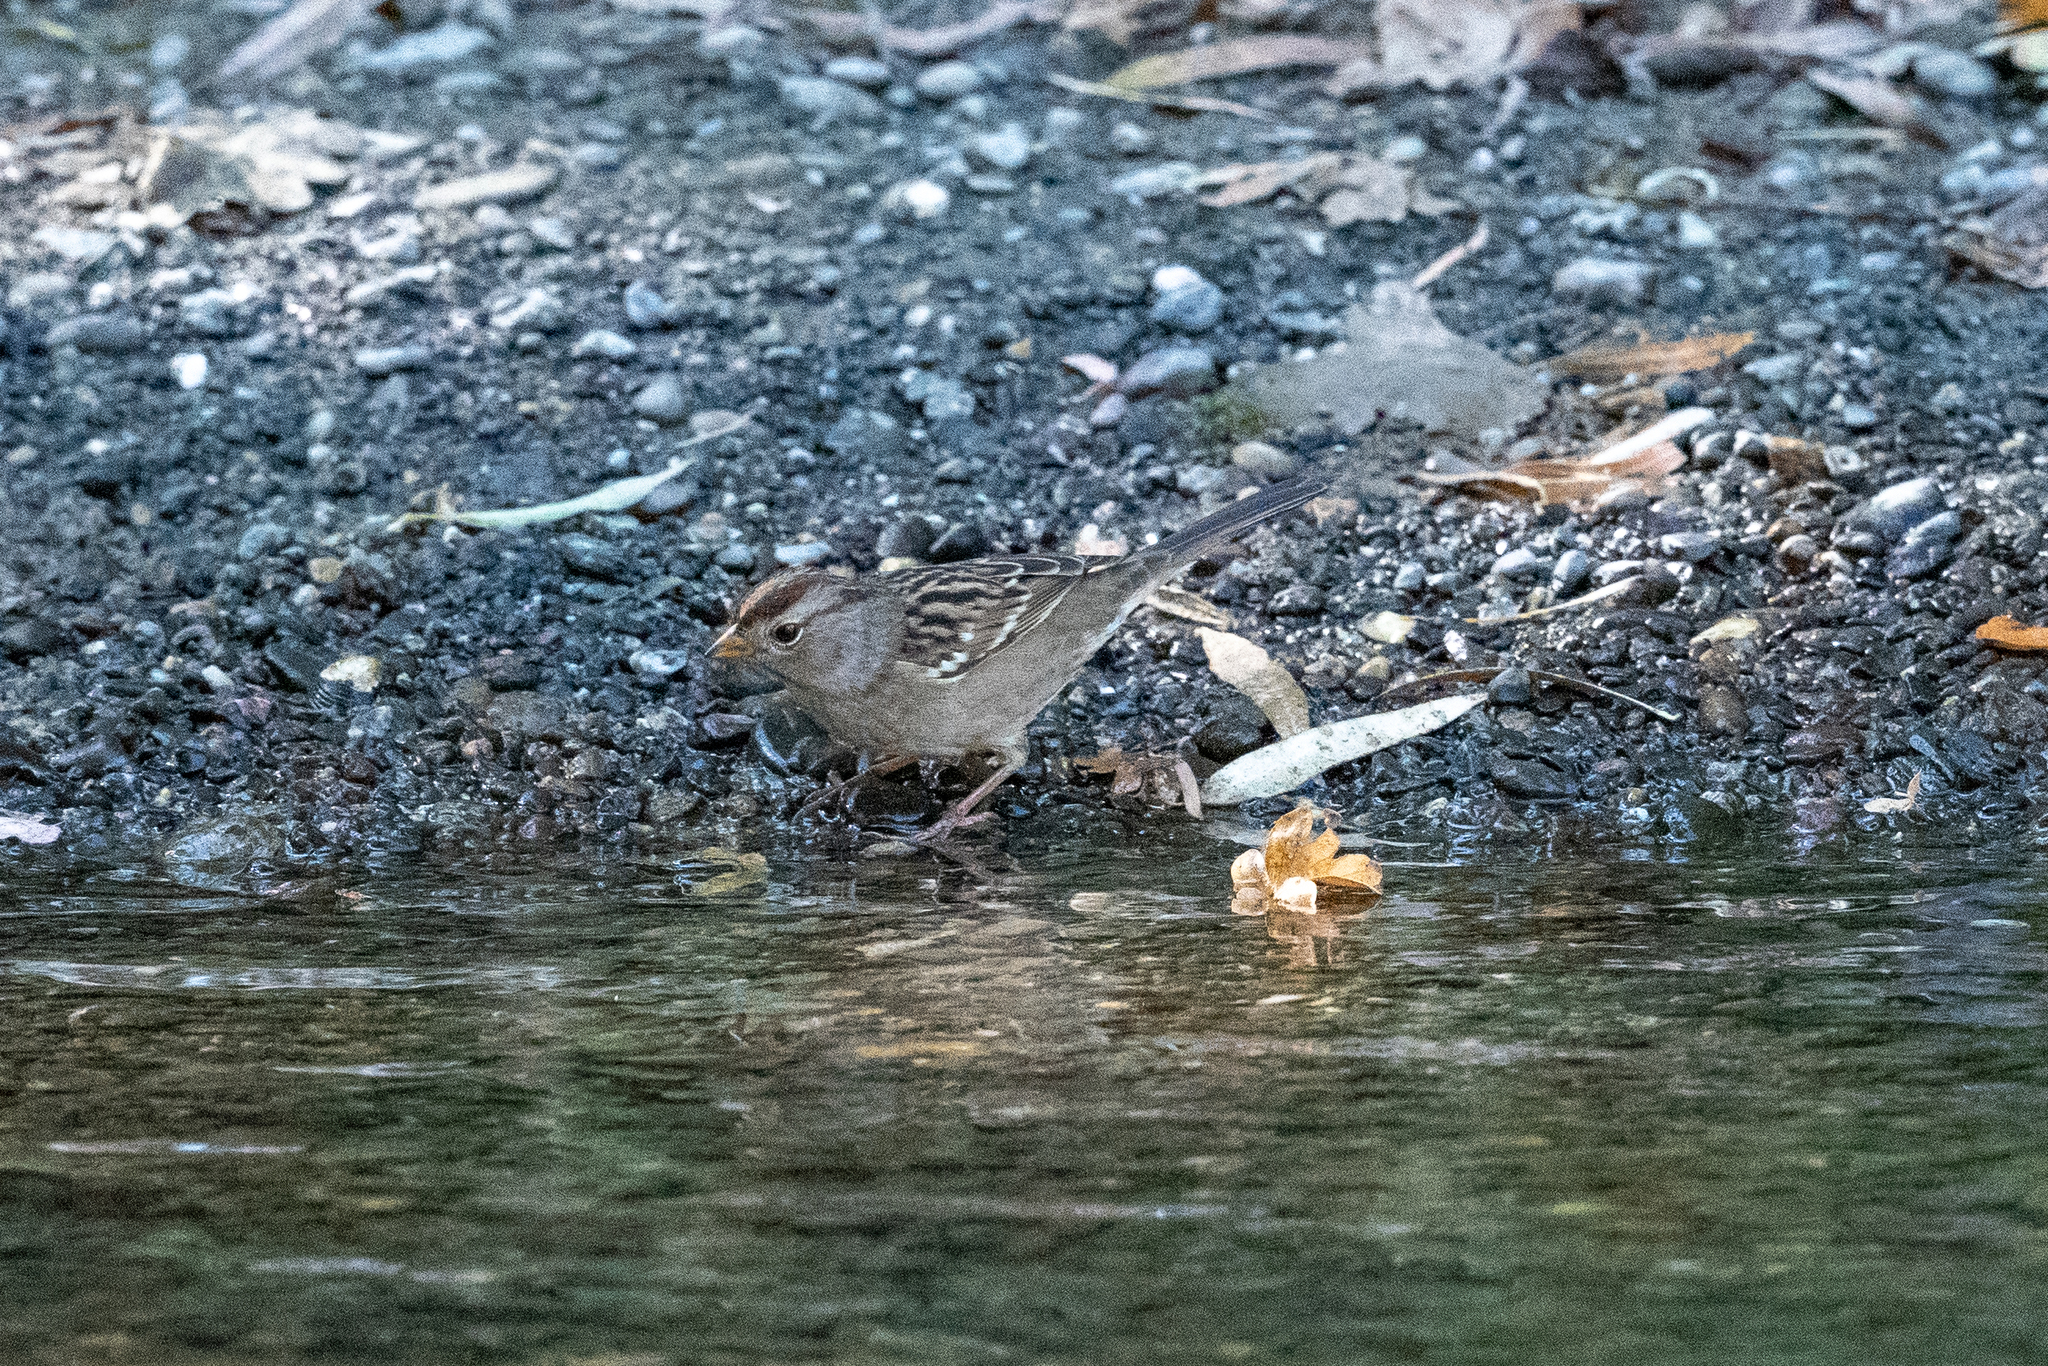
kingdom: Animalia
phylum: Chordata
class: Aves
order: Passeriformes
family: Passerellidae
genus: Zonotrichia
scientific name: Zonotrichia leucophrys
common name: White-crowned sparrow
